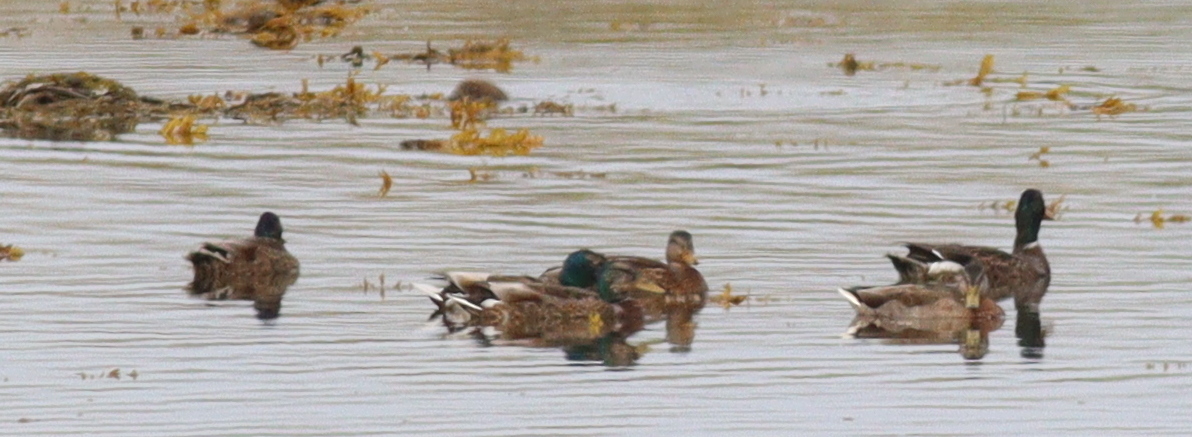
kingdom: Animalia
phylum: Chordata
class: Aves
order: Anseriformes
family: Anatidae
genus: Anas
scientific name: Anas platyrhynchos
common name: Mallard
